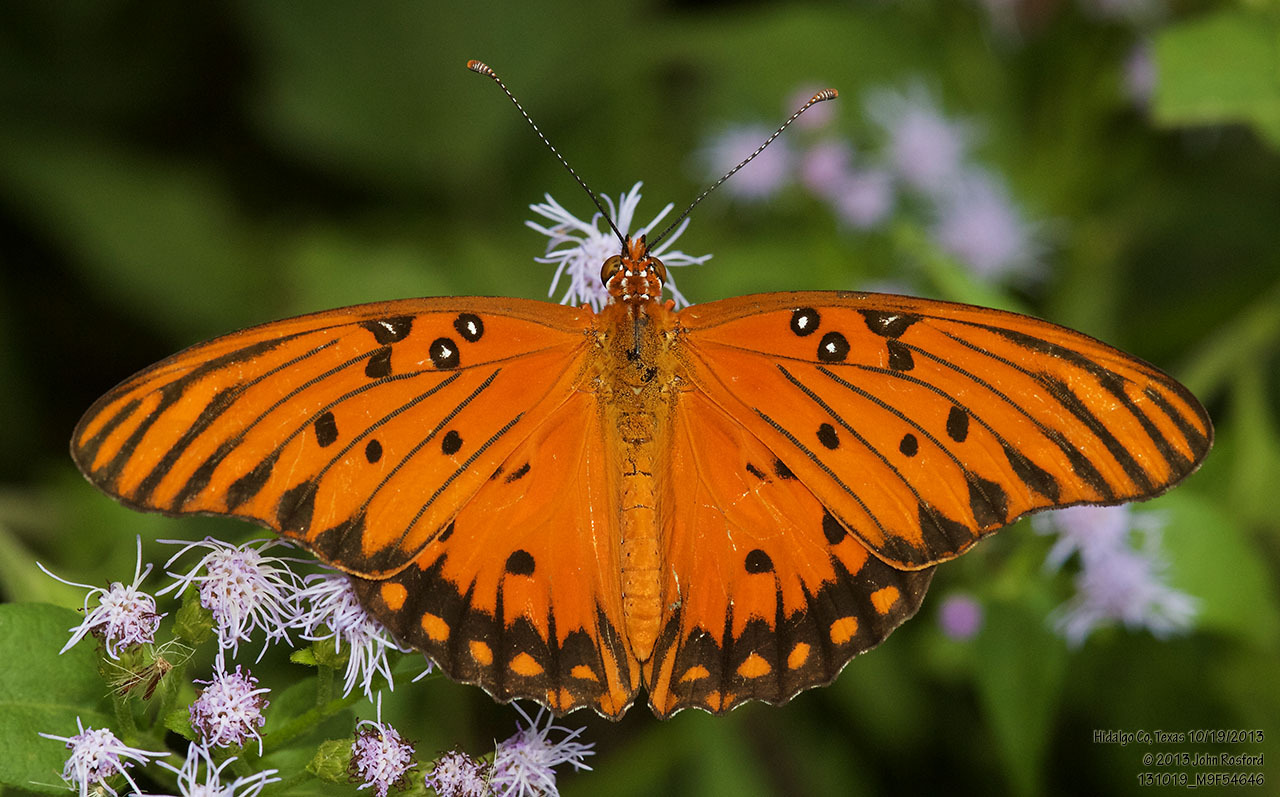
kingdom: Animalia
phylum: Arthropoda
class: Insecta
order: Lepidoptera
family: Nymphalidae
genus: Dione
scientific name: Dione vanillae
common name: Gulf fritillary
